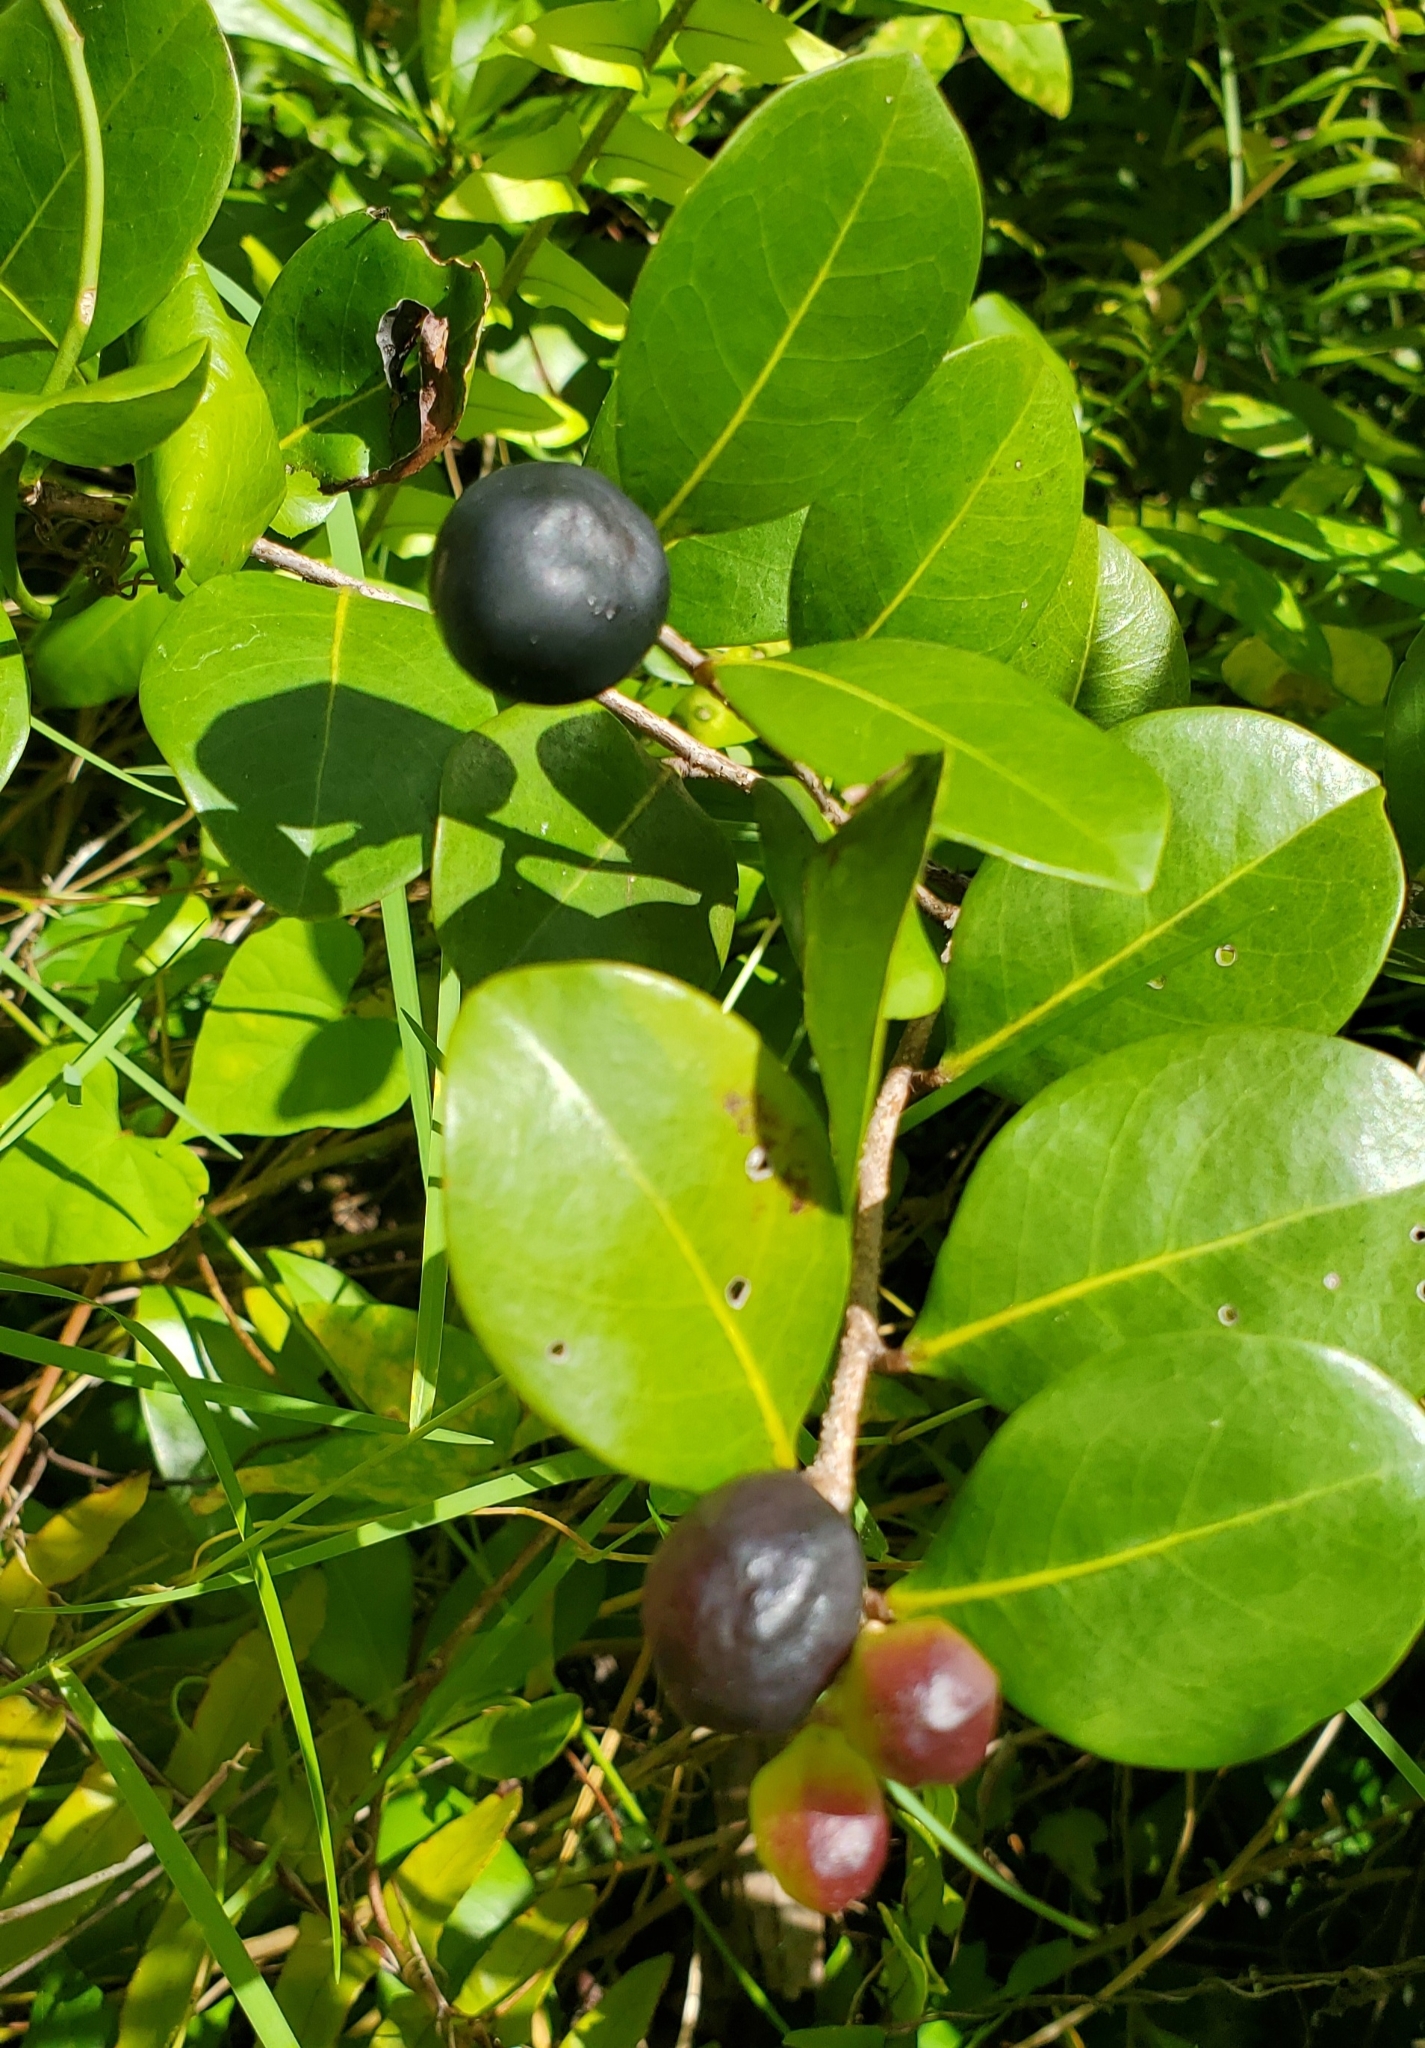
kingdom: Plantae
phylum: Tracheophyta
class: Magnoliopsida
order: Malpighiales
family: Chrysobalanaceae
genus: Chrysobalanus
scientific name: Chrysobalanus icaco
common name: Coco plum
